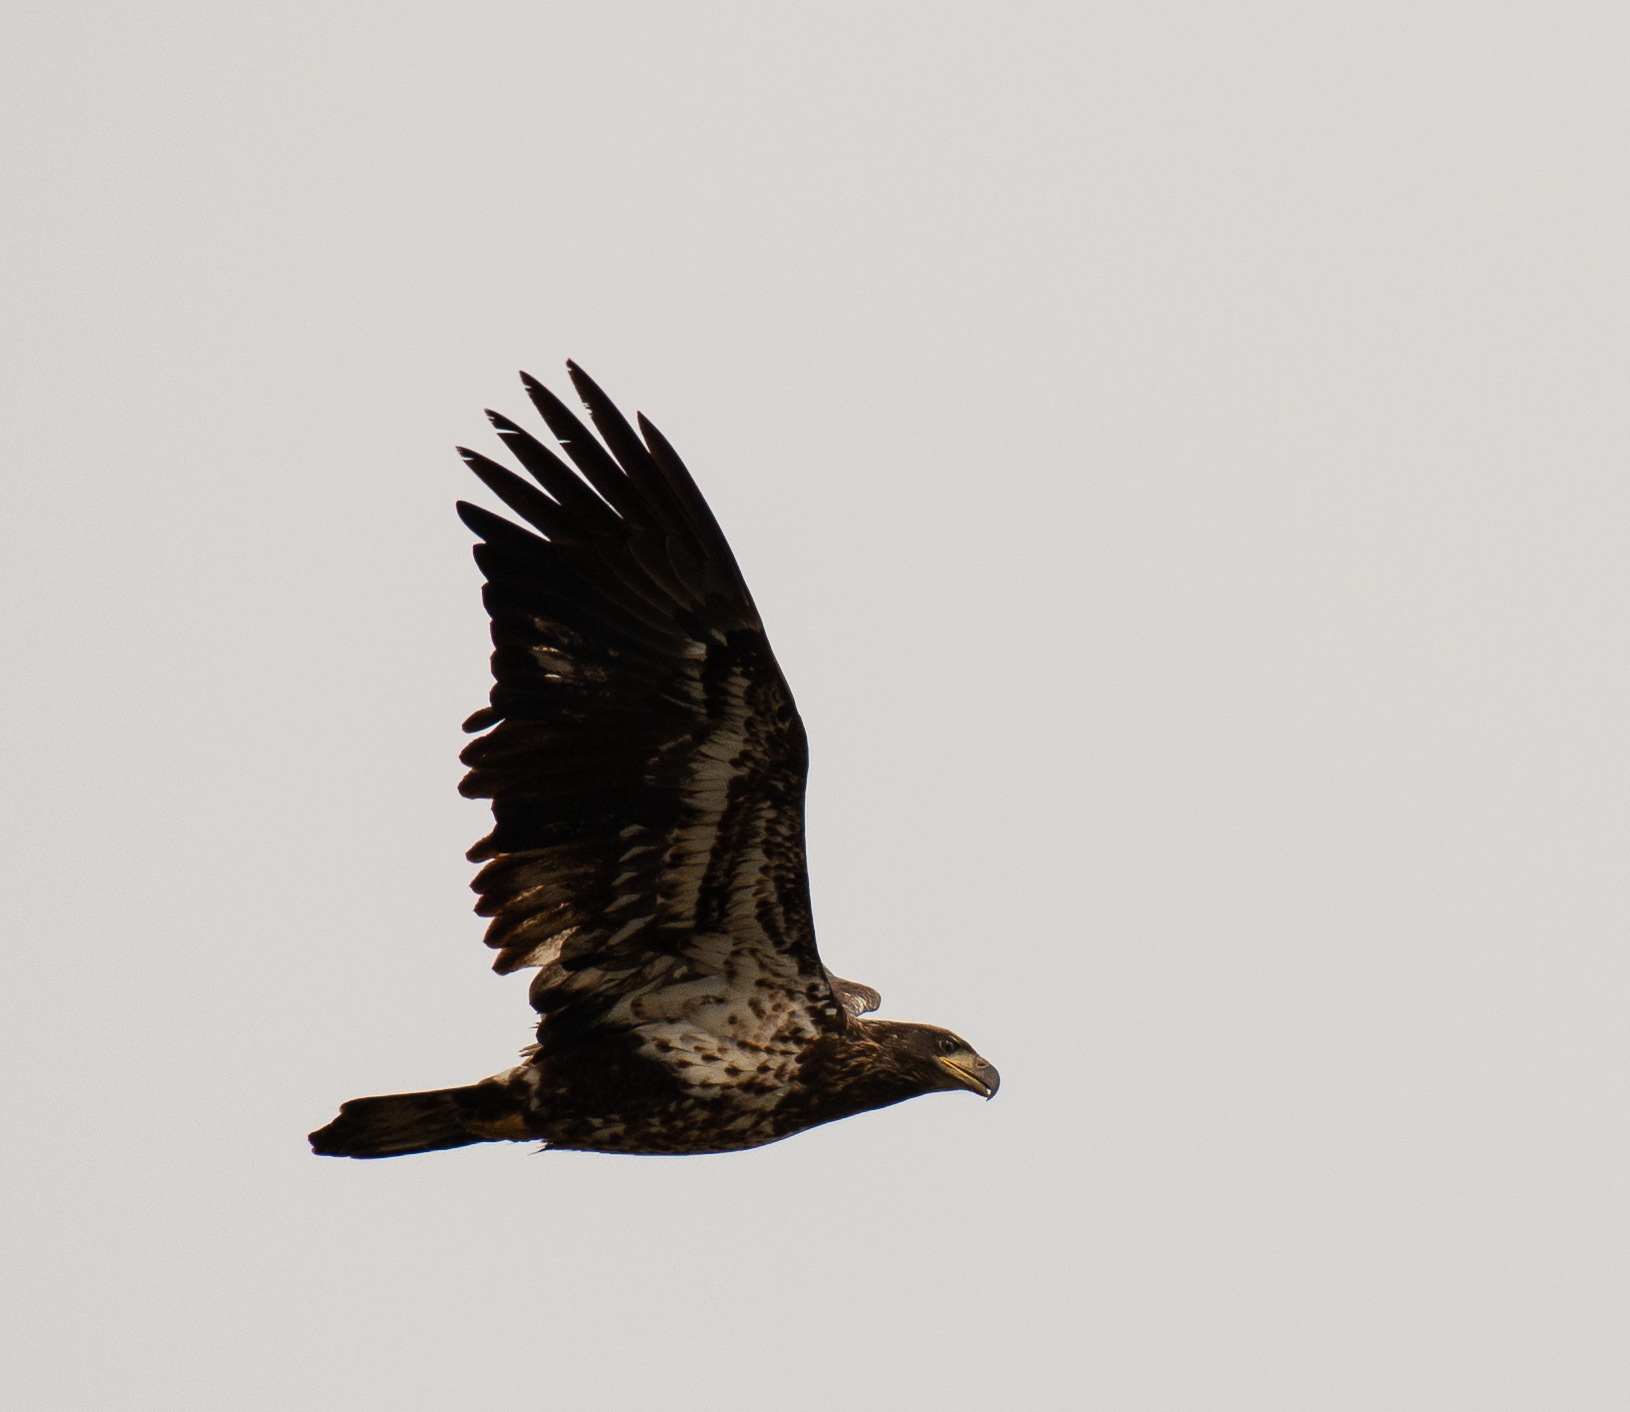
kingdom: Animalia
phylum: Chordata
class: Aves
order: Accipitriformes
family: Accipitridae
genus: Haliaeetus
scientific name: Haliaeetus leucocephalus
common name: Bald eagle
